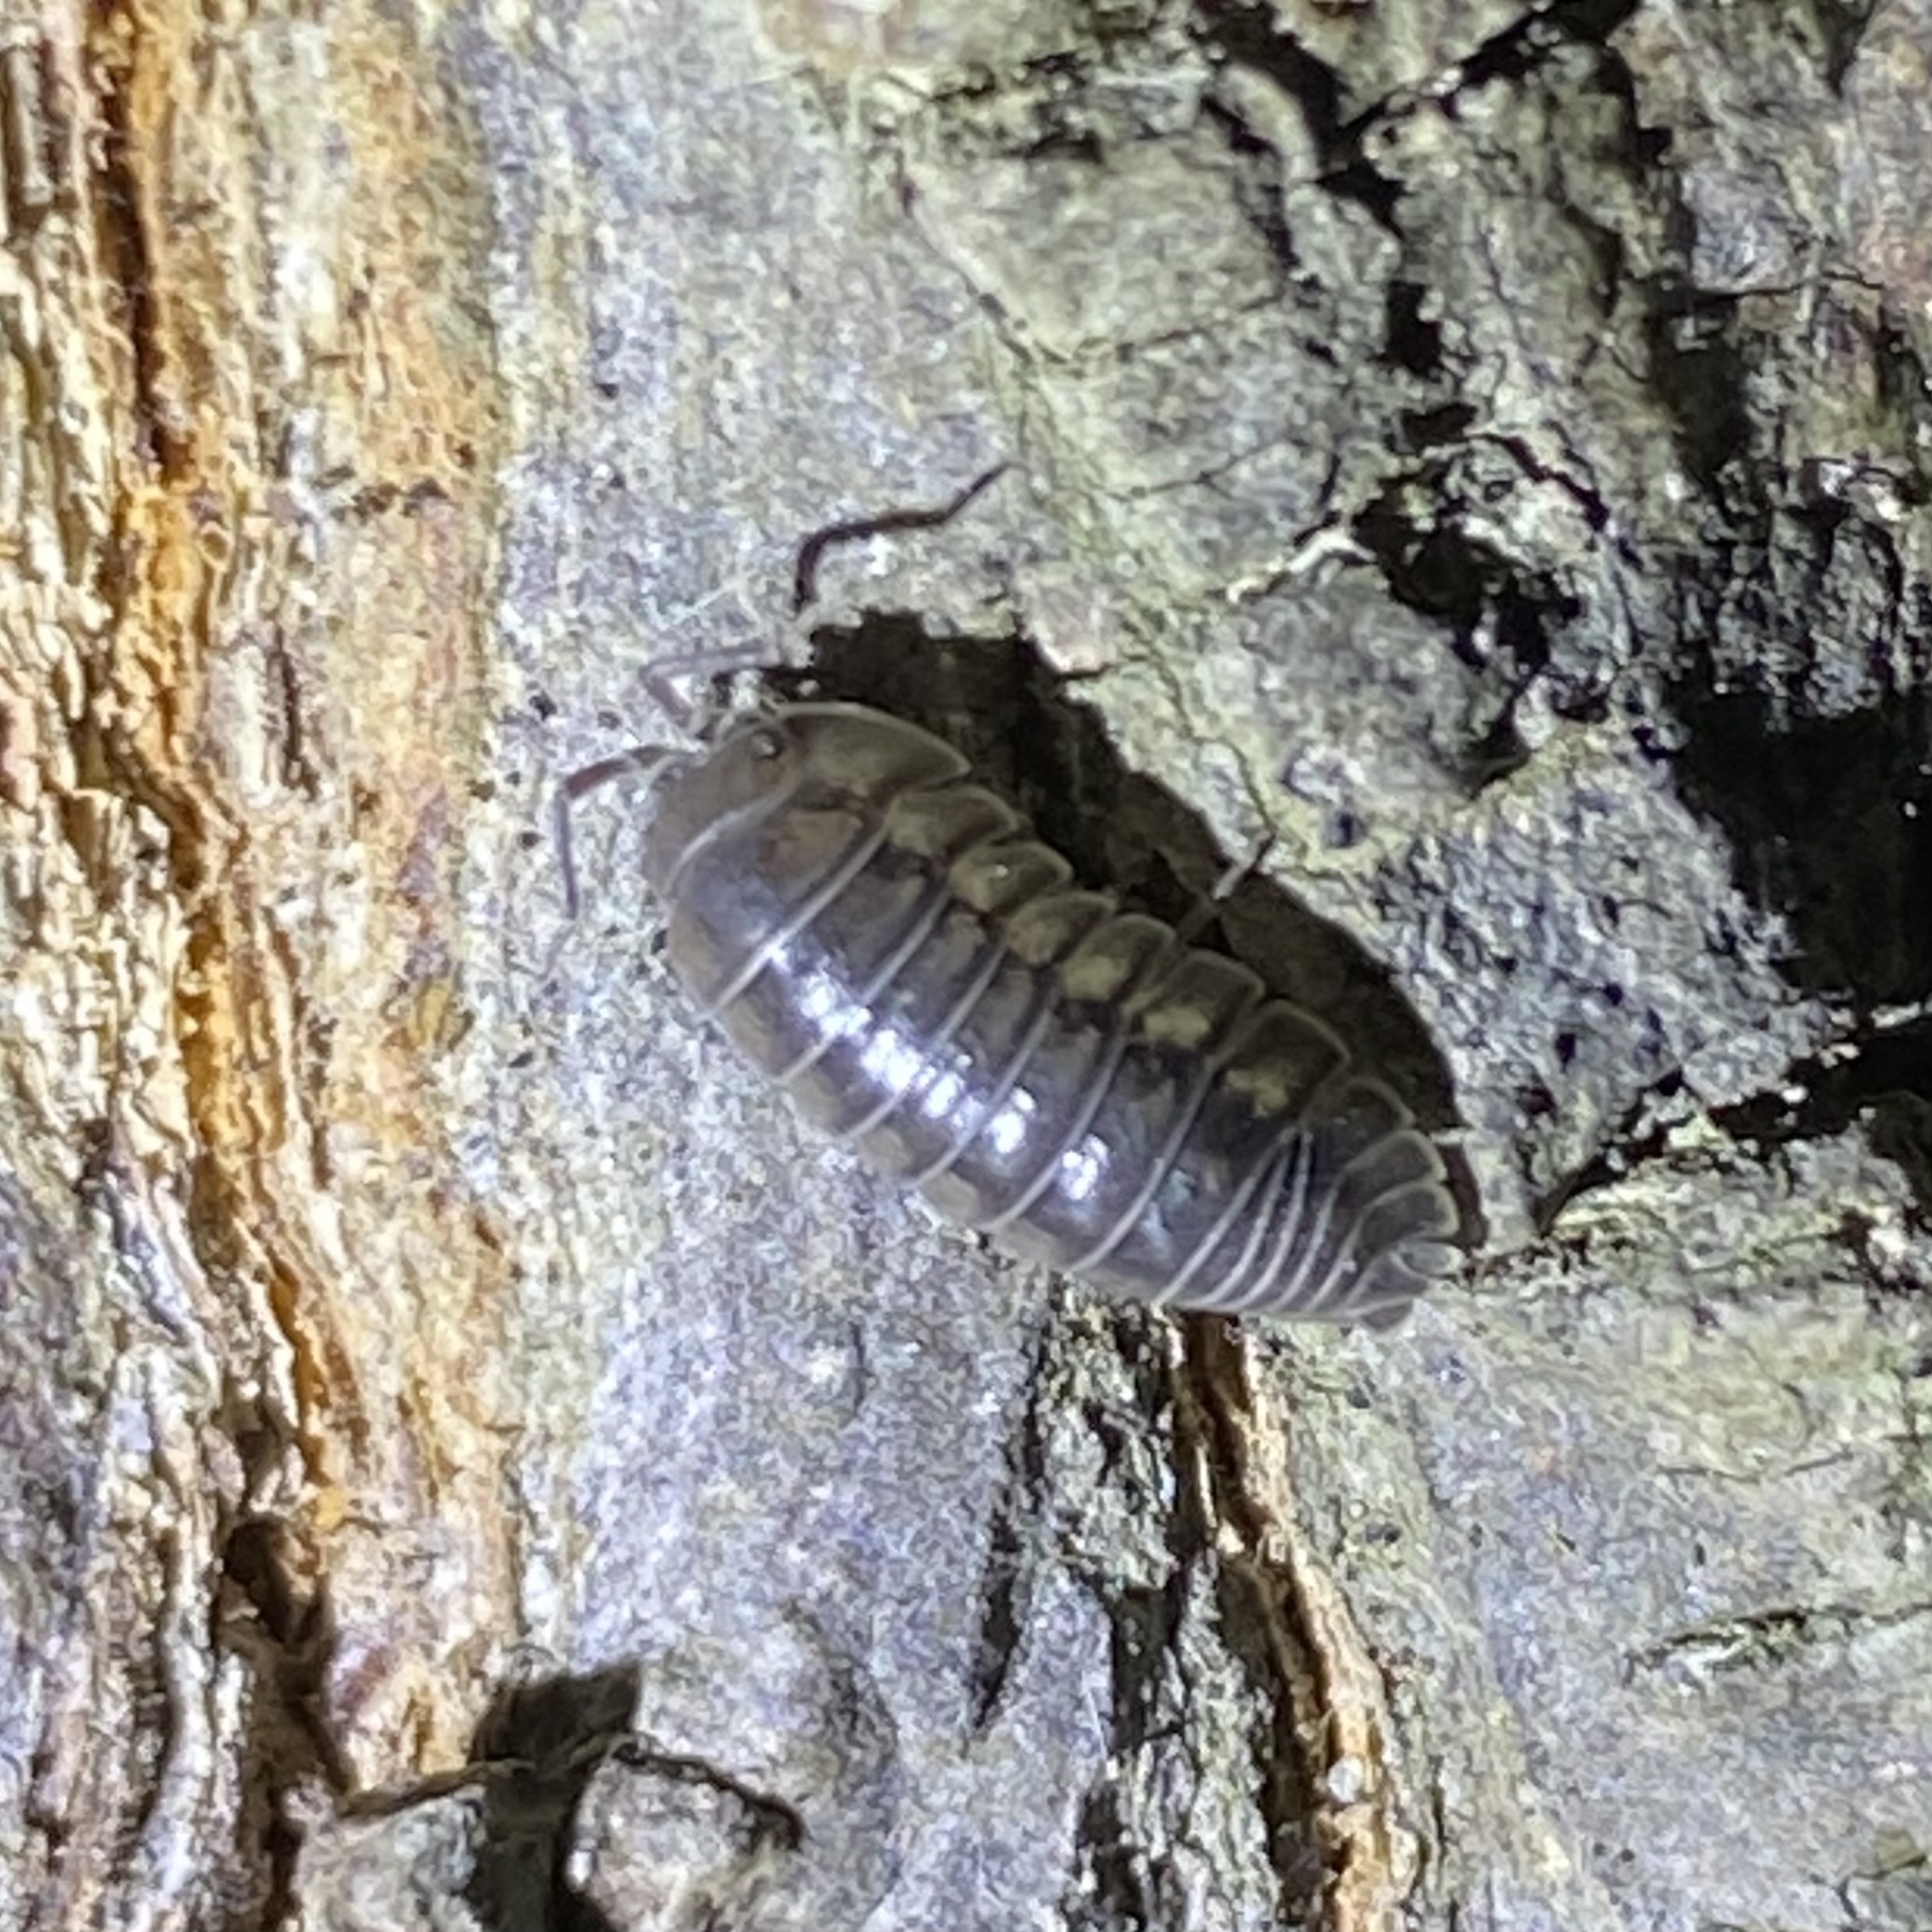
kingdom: Animalia
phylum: Arthropoda
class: Malacostraca
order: Isopoda
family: Armadillidiidae
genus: Armadillidium
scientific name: Armadillidium nasatum
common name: Isopod
